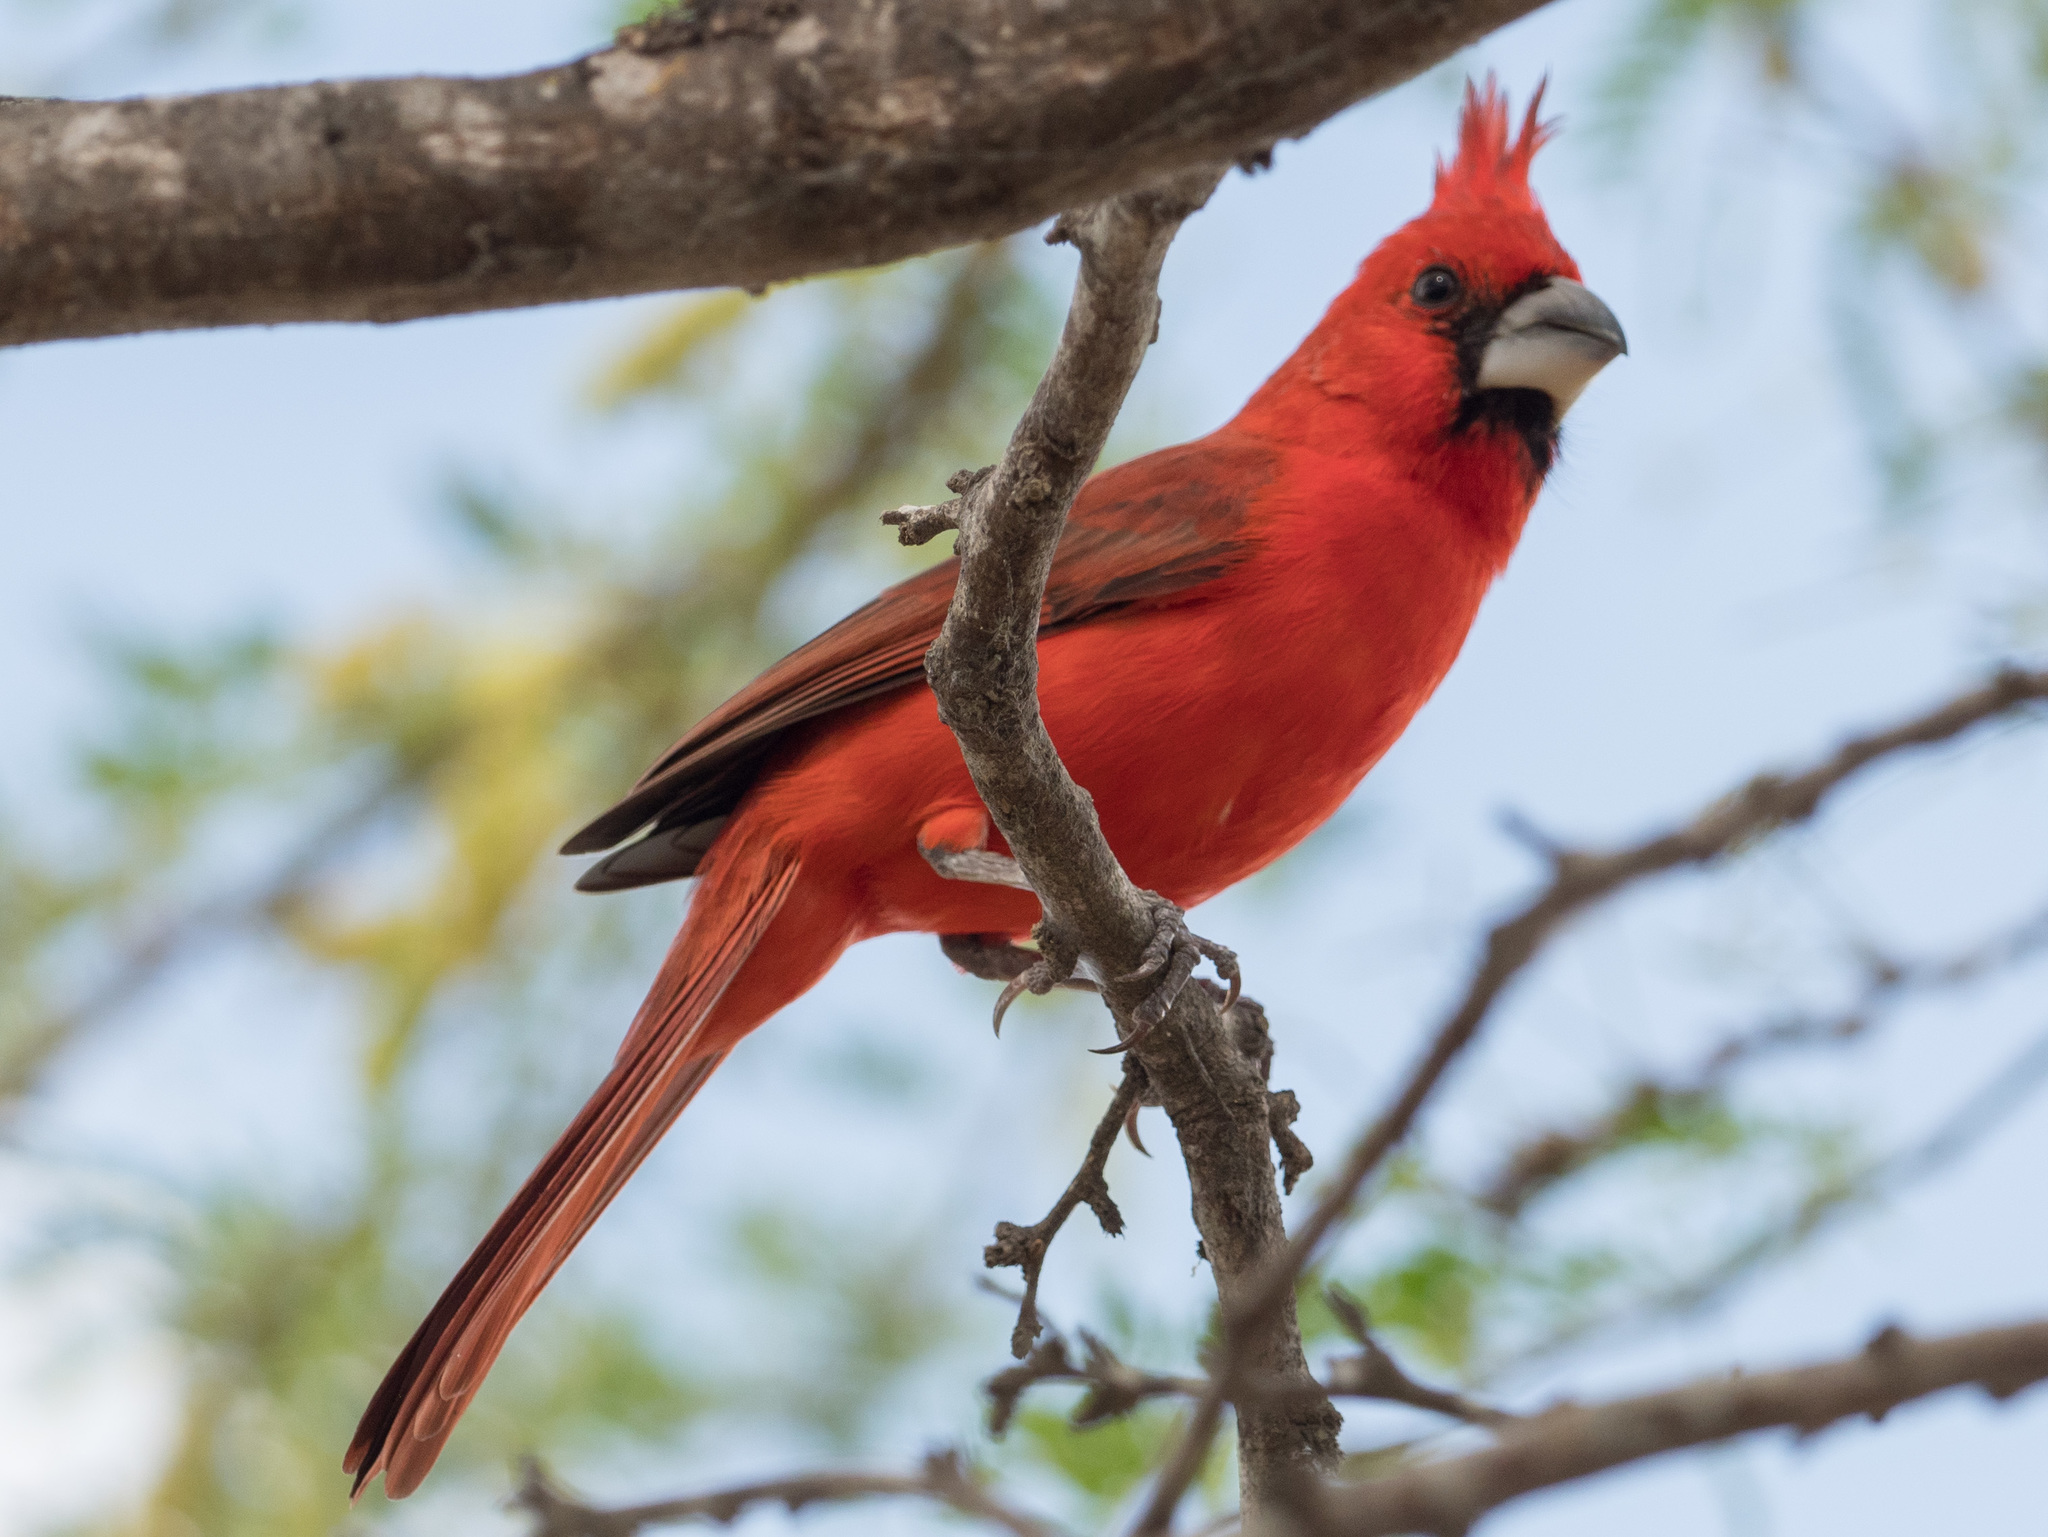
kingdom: Animalia
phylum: Chordata
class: Aves
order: Passeriformes
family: Cardinalidae
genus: Cardinalis
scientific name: Cardinalis phoeniceus
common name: Vermilion cardinal
